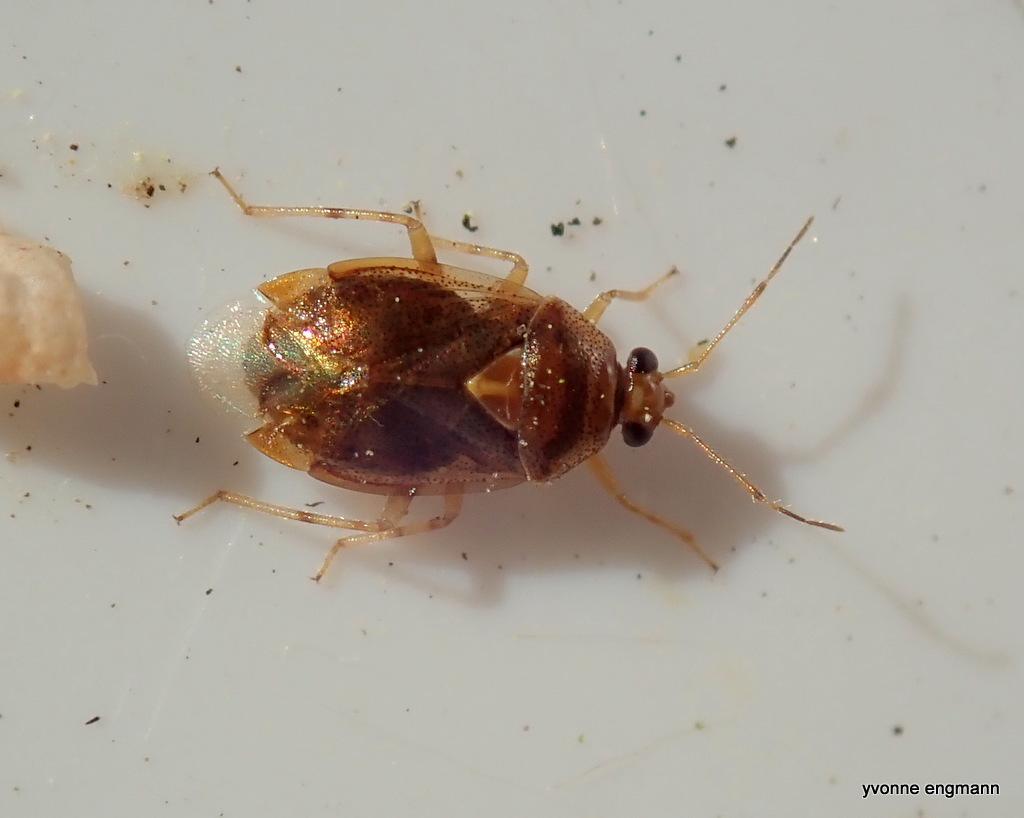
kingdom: Animalia
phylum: Arthropoda
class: Insecta
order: Hemiptera
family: Miridae
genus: Deraeocoris
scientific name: Deraeocoris lutescens
